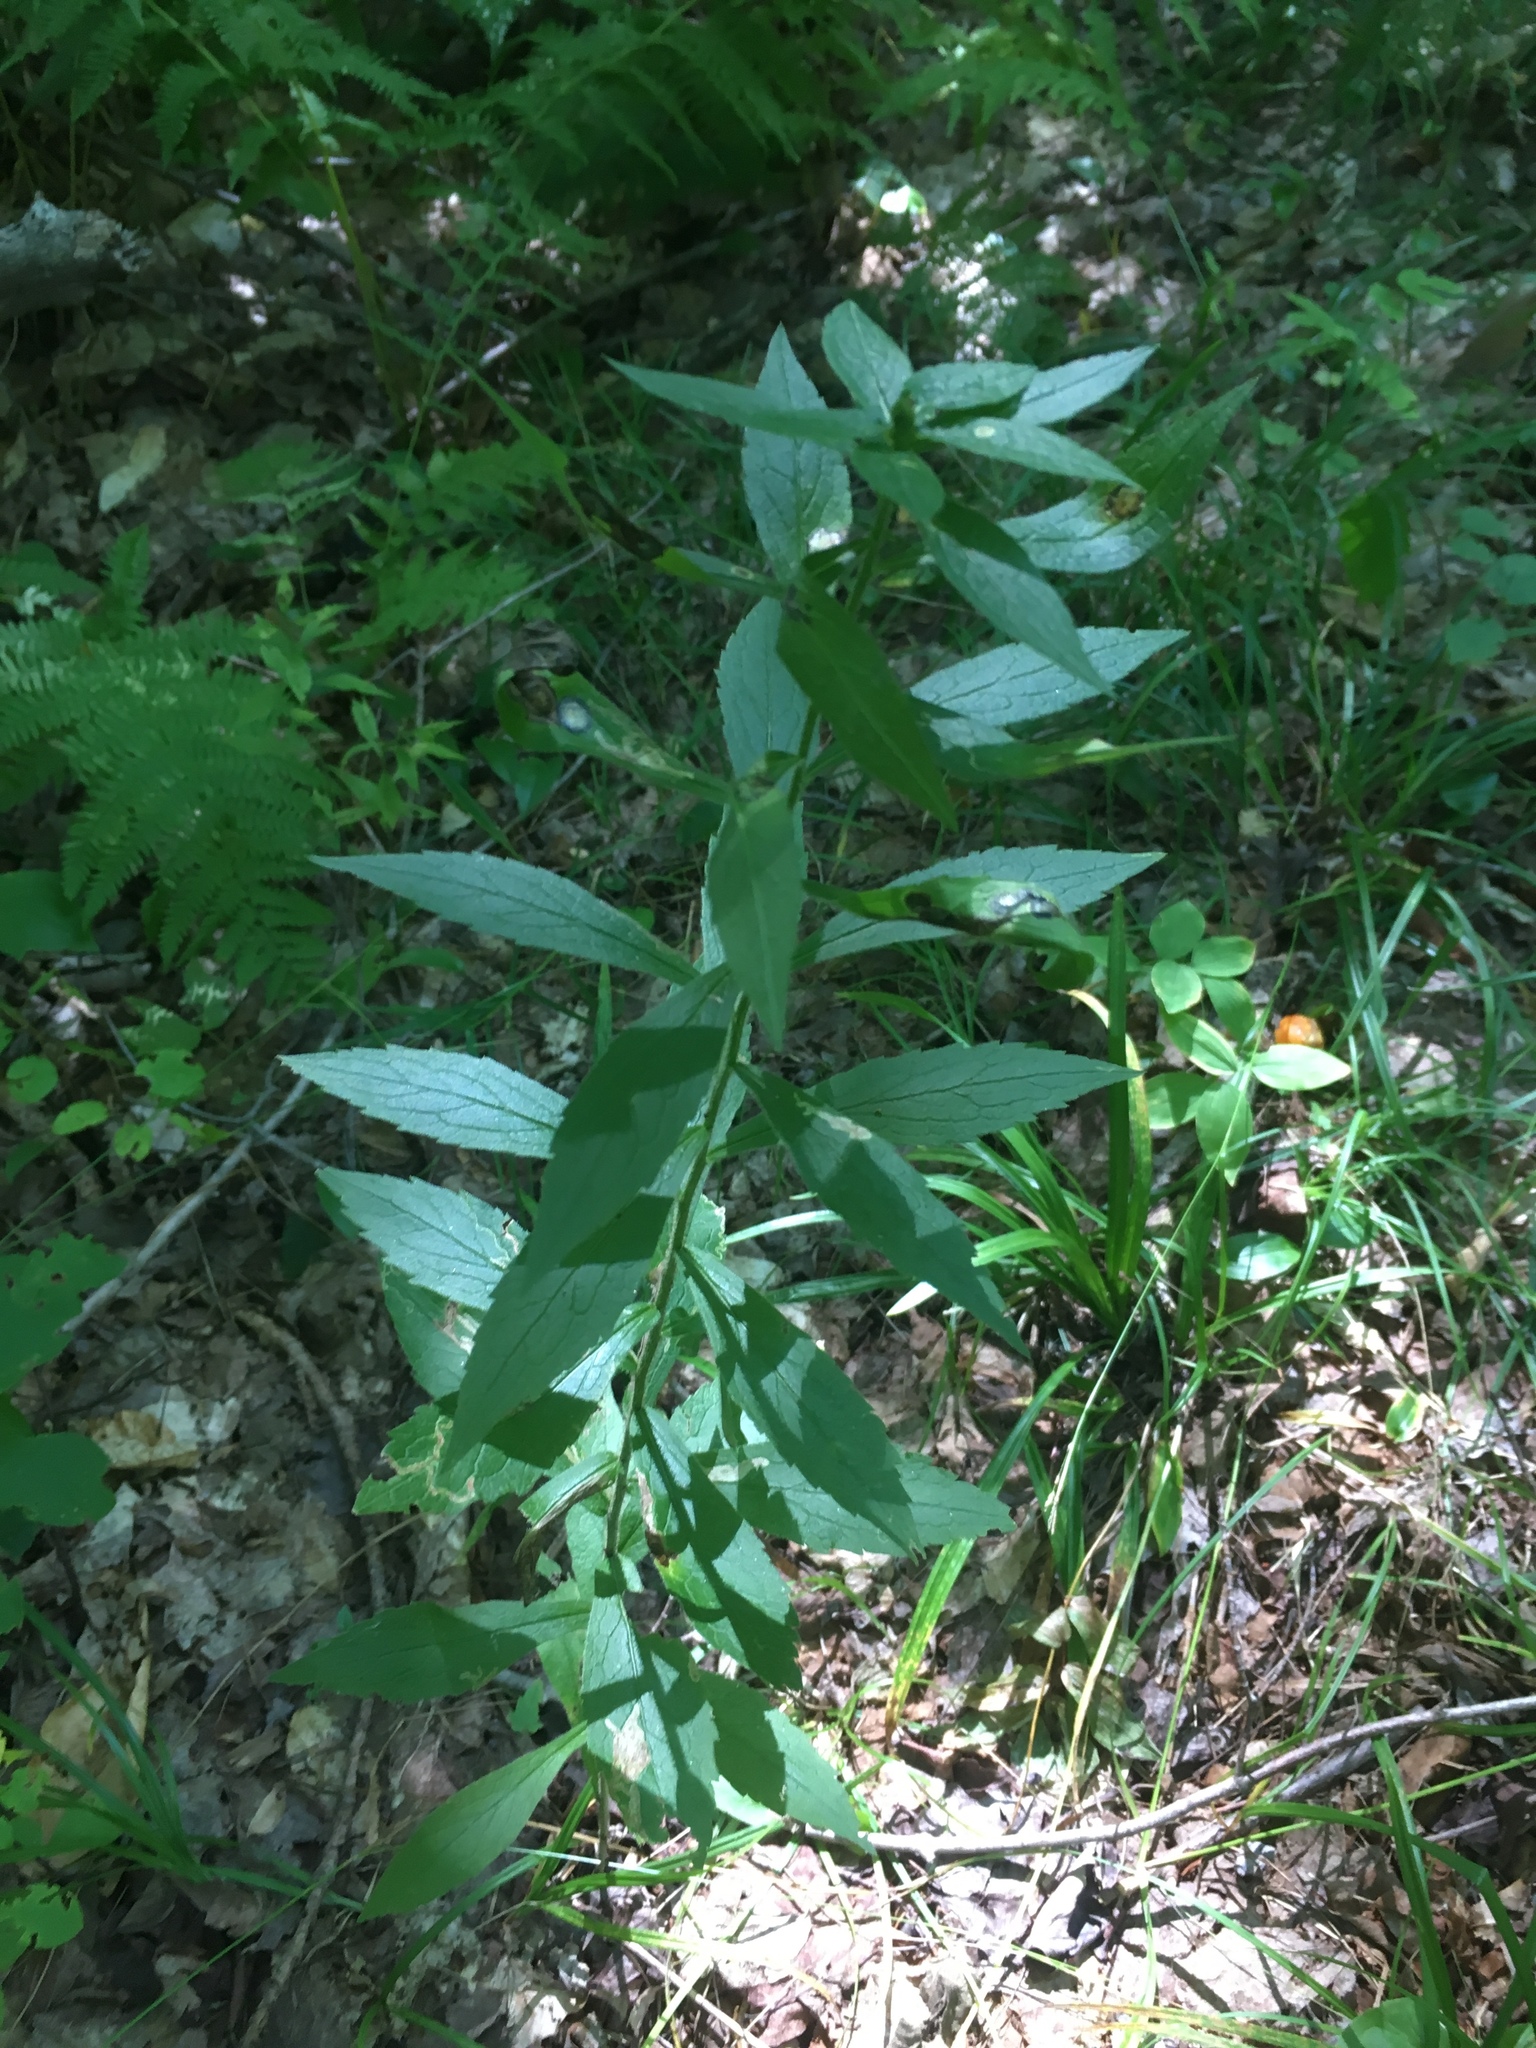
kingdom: Plantae
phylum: Tracheophyta
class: Magnoliopsida
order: Asterales
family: Asteraceae
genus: Solidago
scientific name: Solidago rugosa
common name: Rough-stemmed goldenrod
